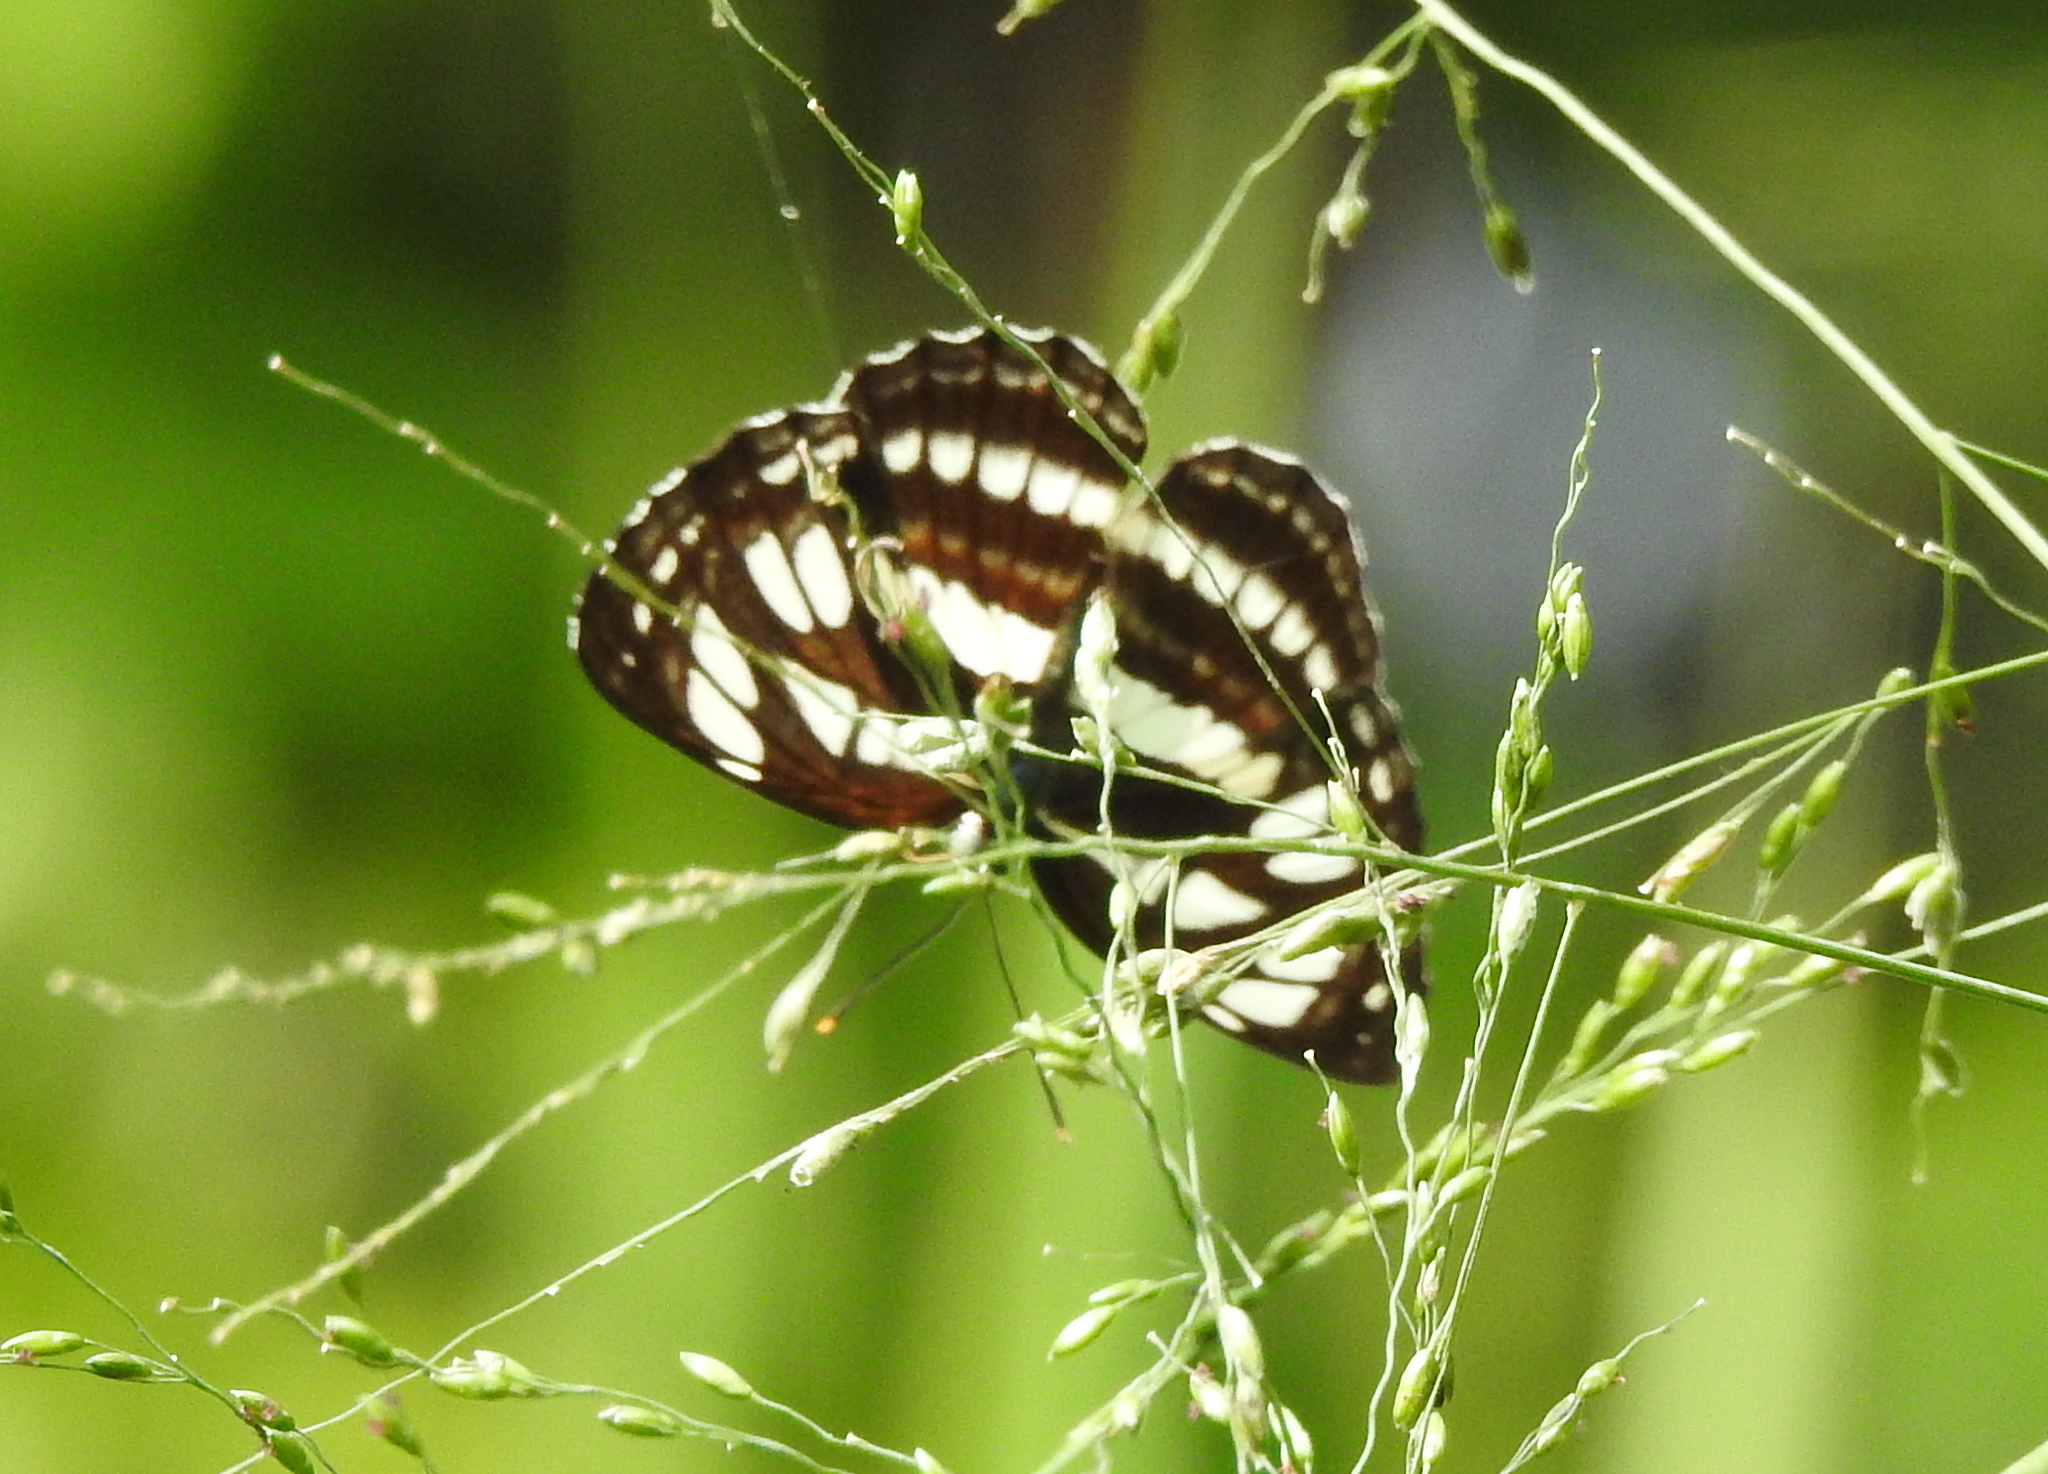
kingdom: Animalia
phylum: Arthropoda
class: Insecta
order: Lepidoptera
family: Nymphalidae
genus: Neptis
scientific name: Neptis hylas
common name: Common sailer
